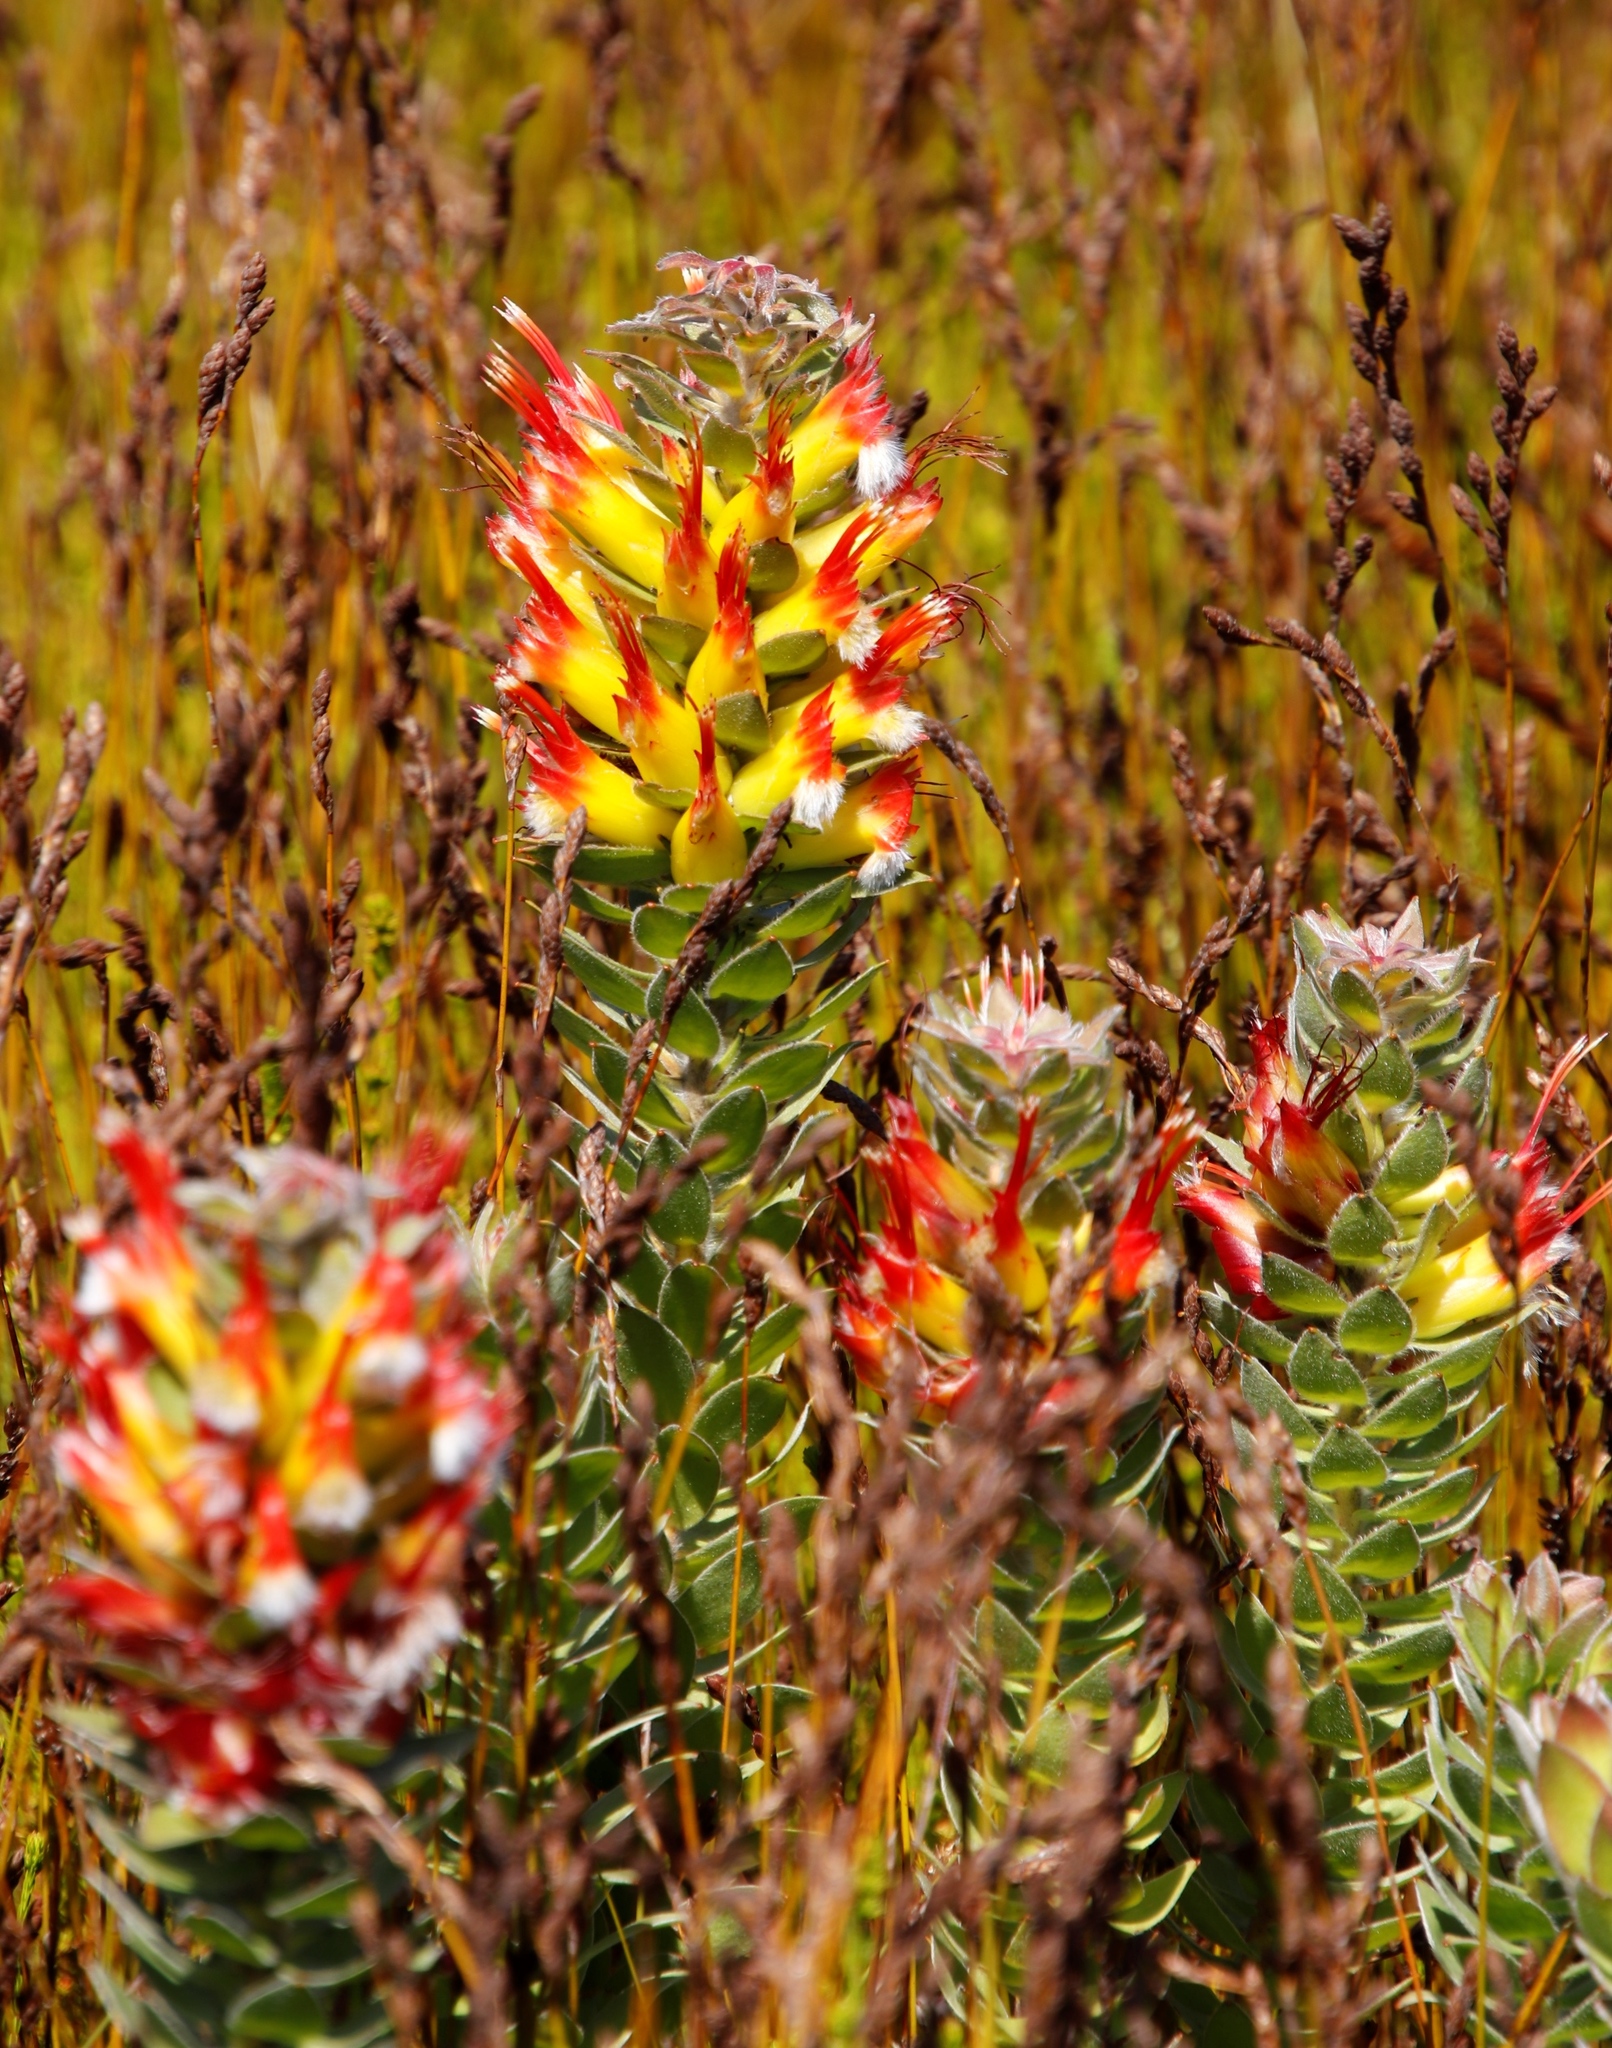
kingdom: Plantae
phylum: Tracheophyta
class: Magnoliopsida
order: Proteales
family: Proteaceae
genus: Mimetes
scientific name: Mimetes hirtus
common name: Marsh pagoda
